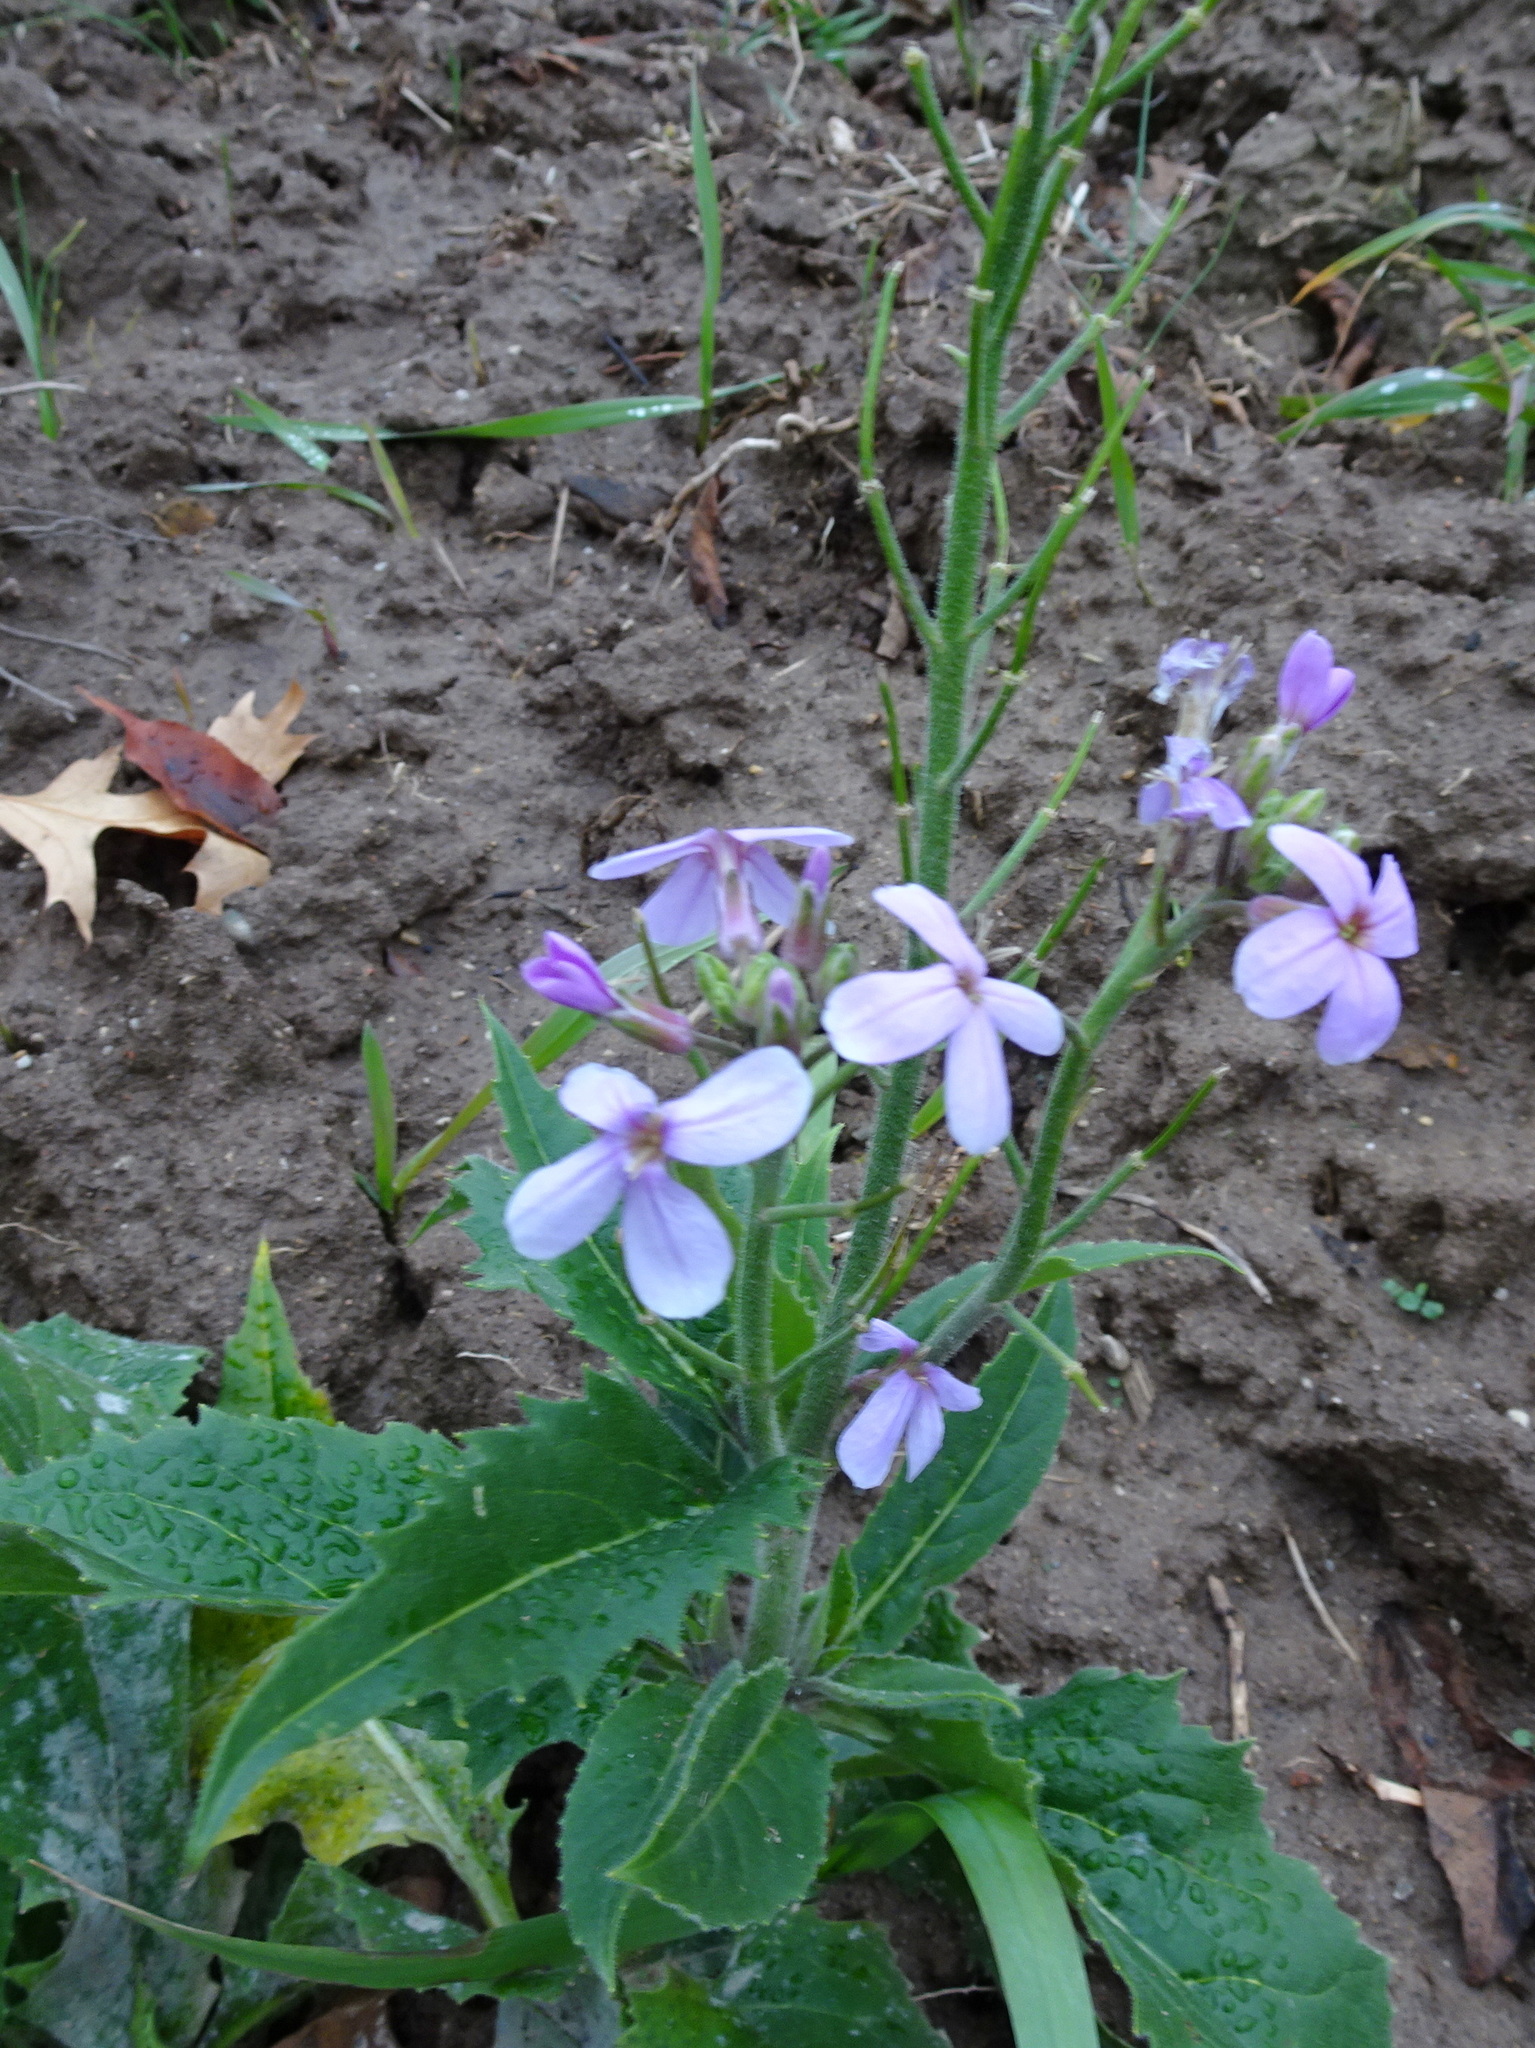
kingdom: Plantae
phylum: Tracheophyta
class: Magnoliopsida
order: Brassicales
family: Brassicaceae
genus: Hesperis
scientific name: Hesperis matronalis
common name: Dame's-violet
